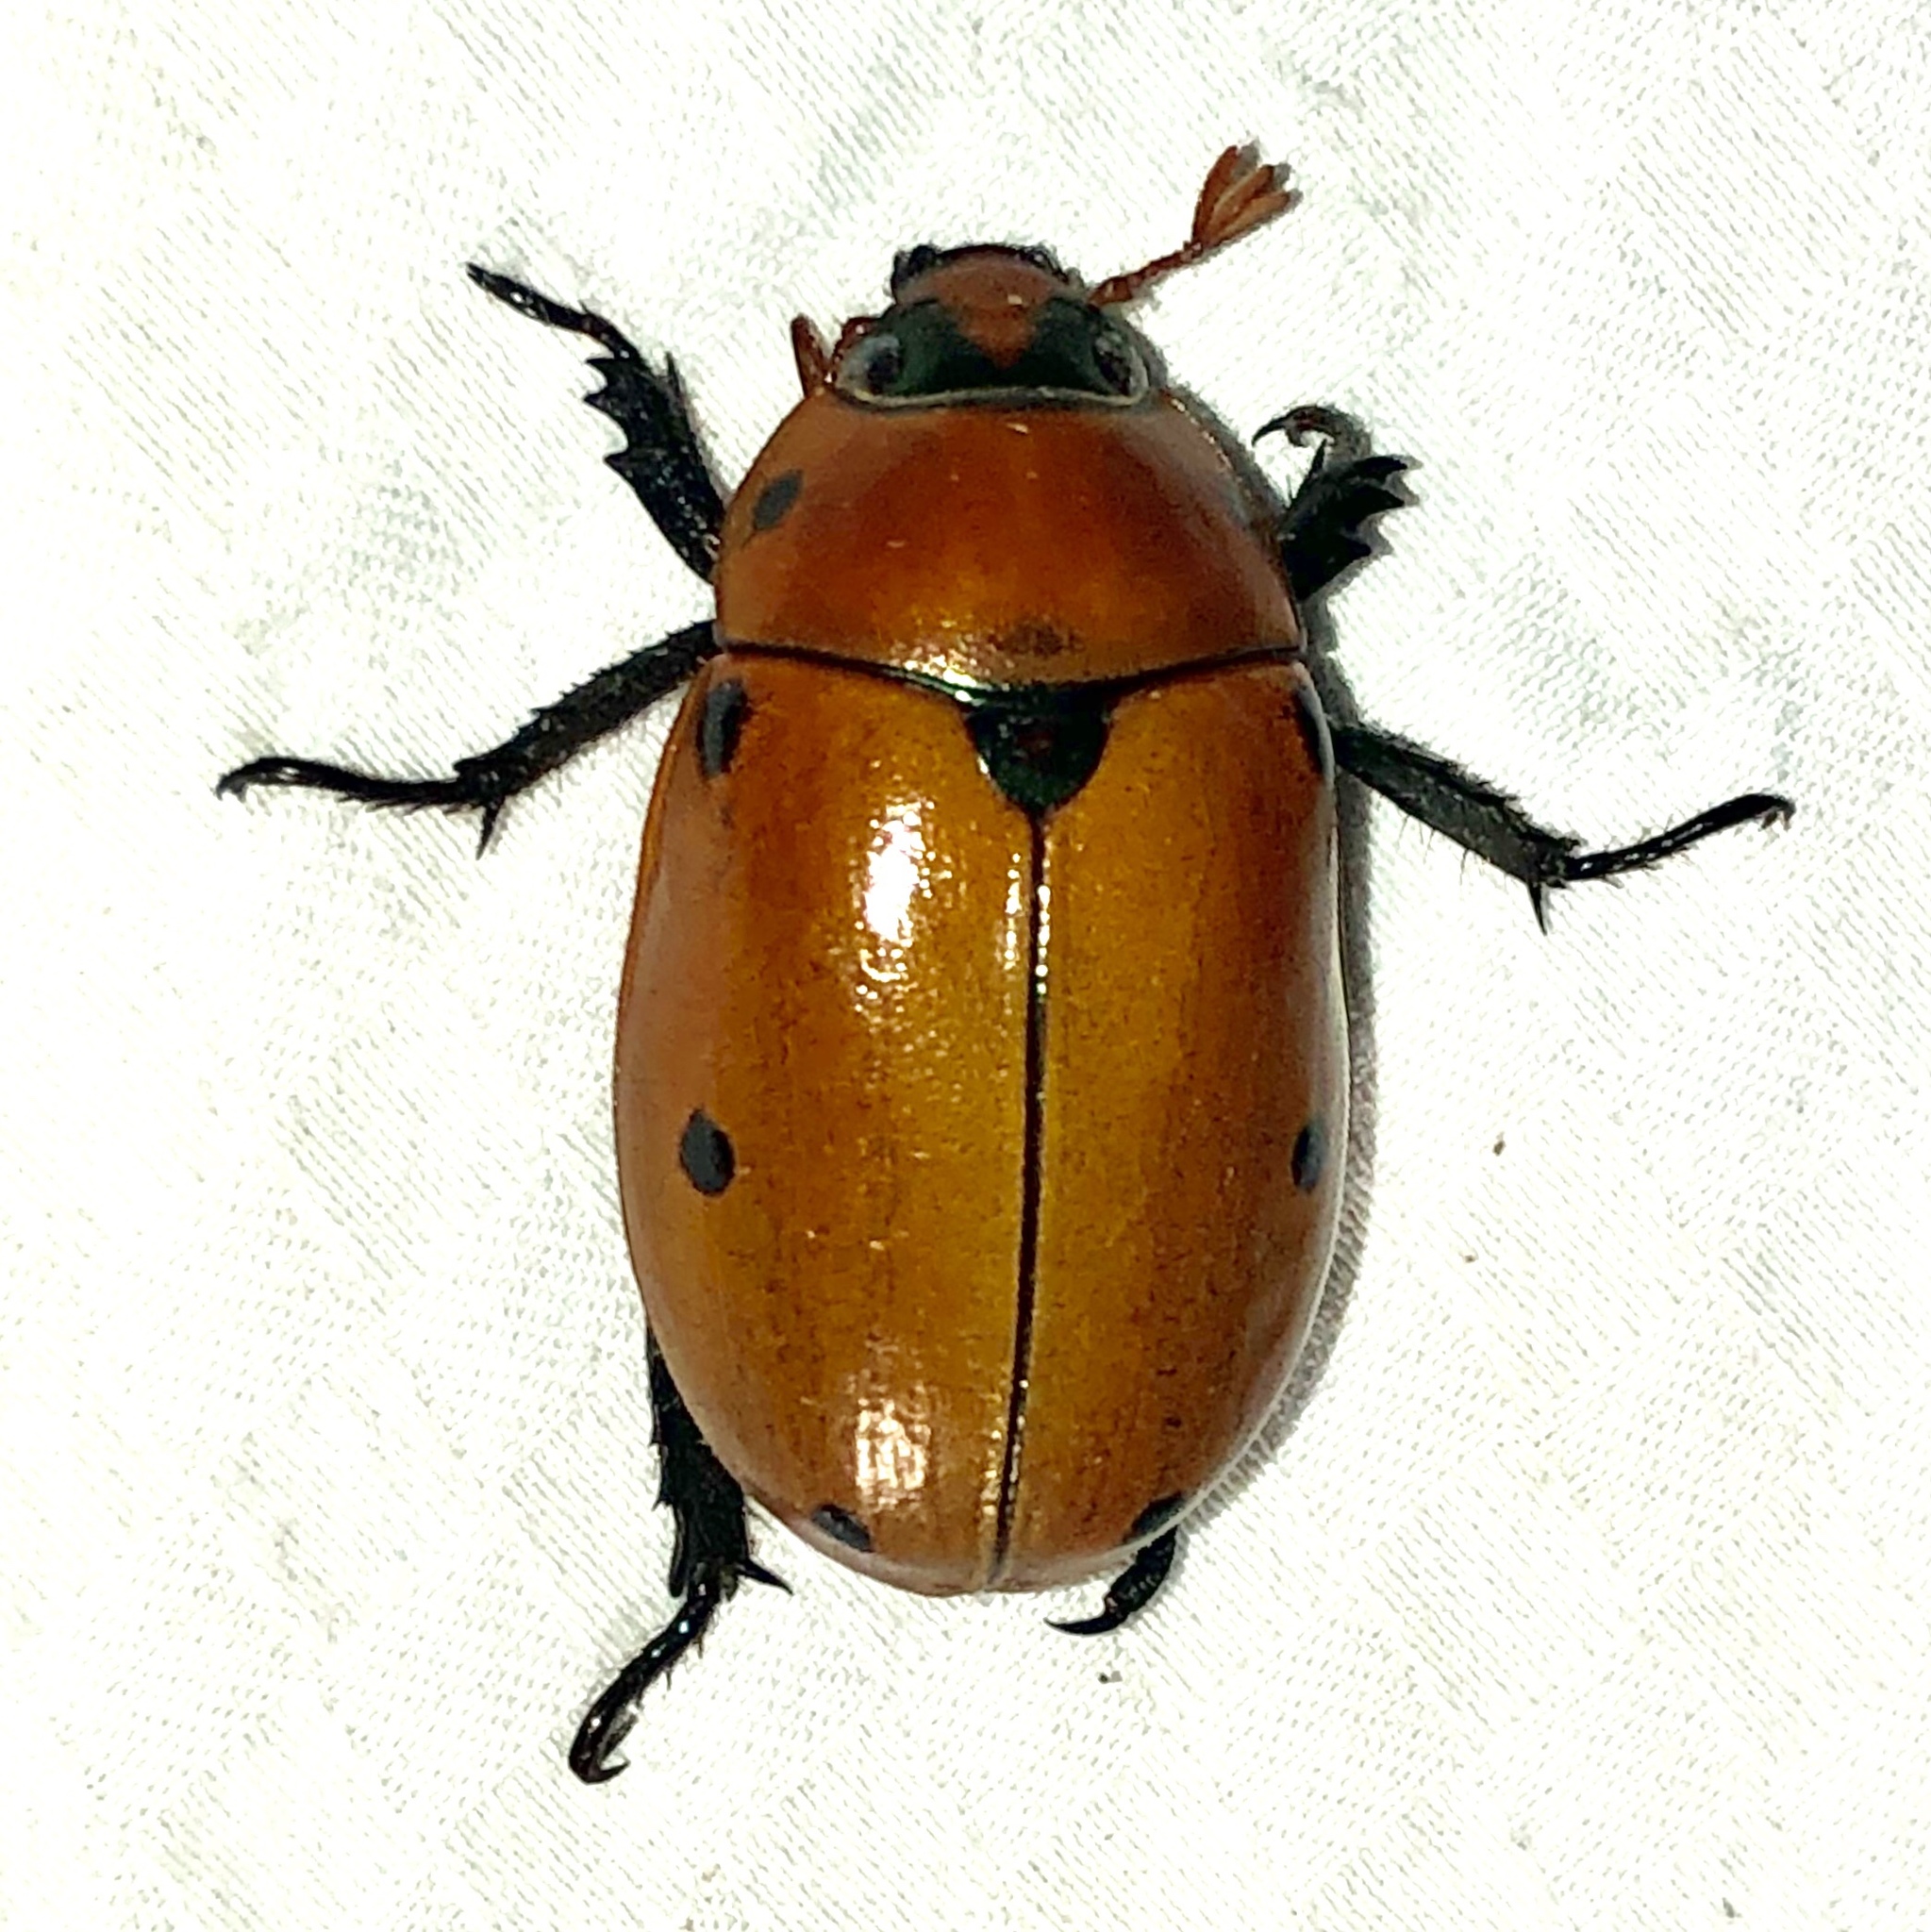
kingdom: Animalia
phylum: Arthropoda
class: Insecta
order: Coleoptera
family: Scarabaeidae
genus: Pelidnota
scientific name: Pelidnota punctata
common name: Grapevine beetle
